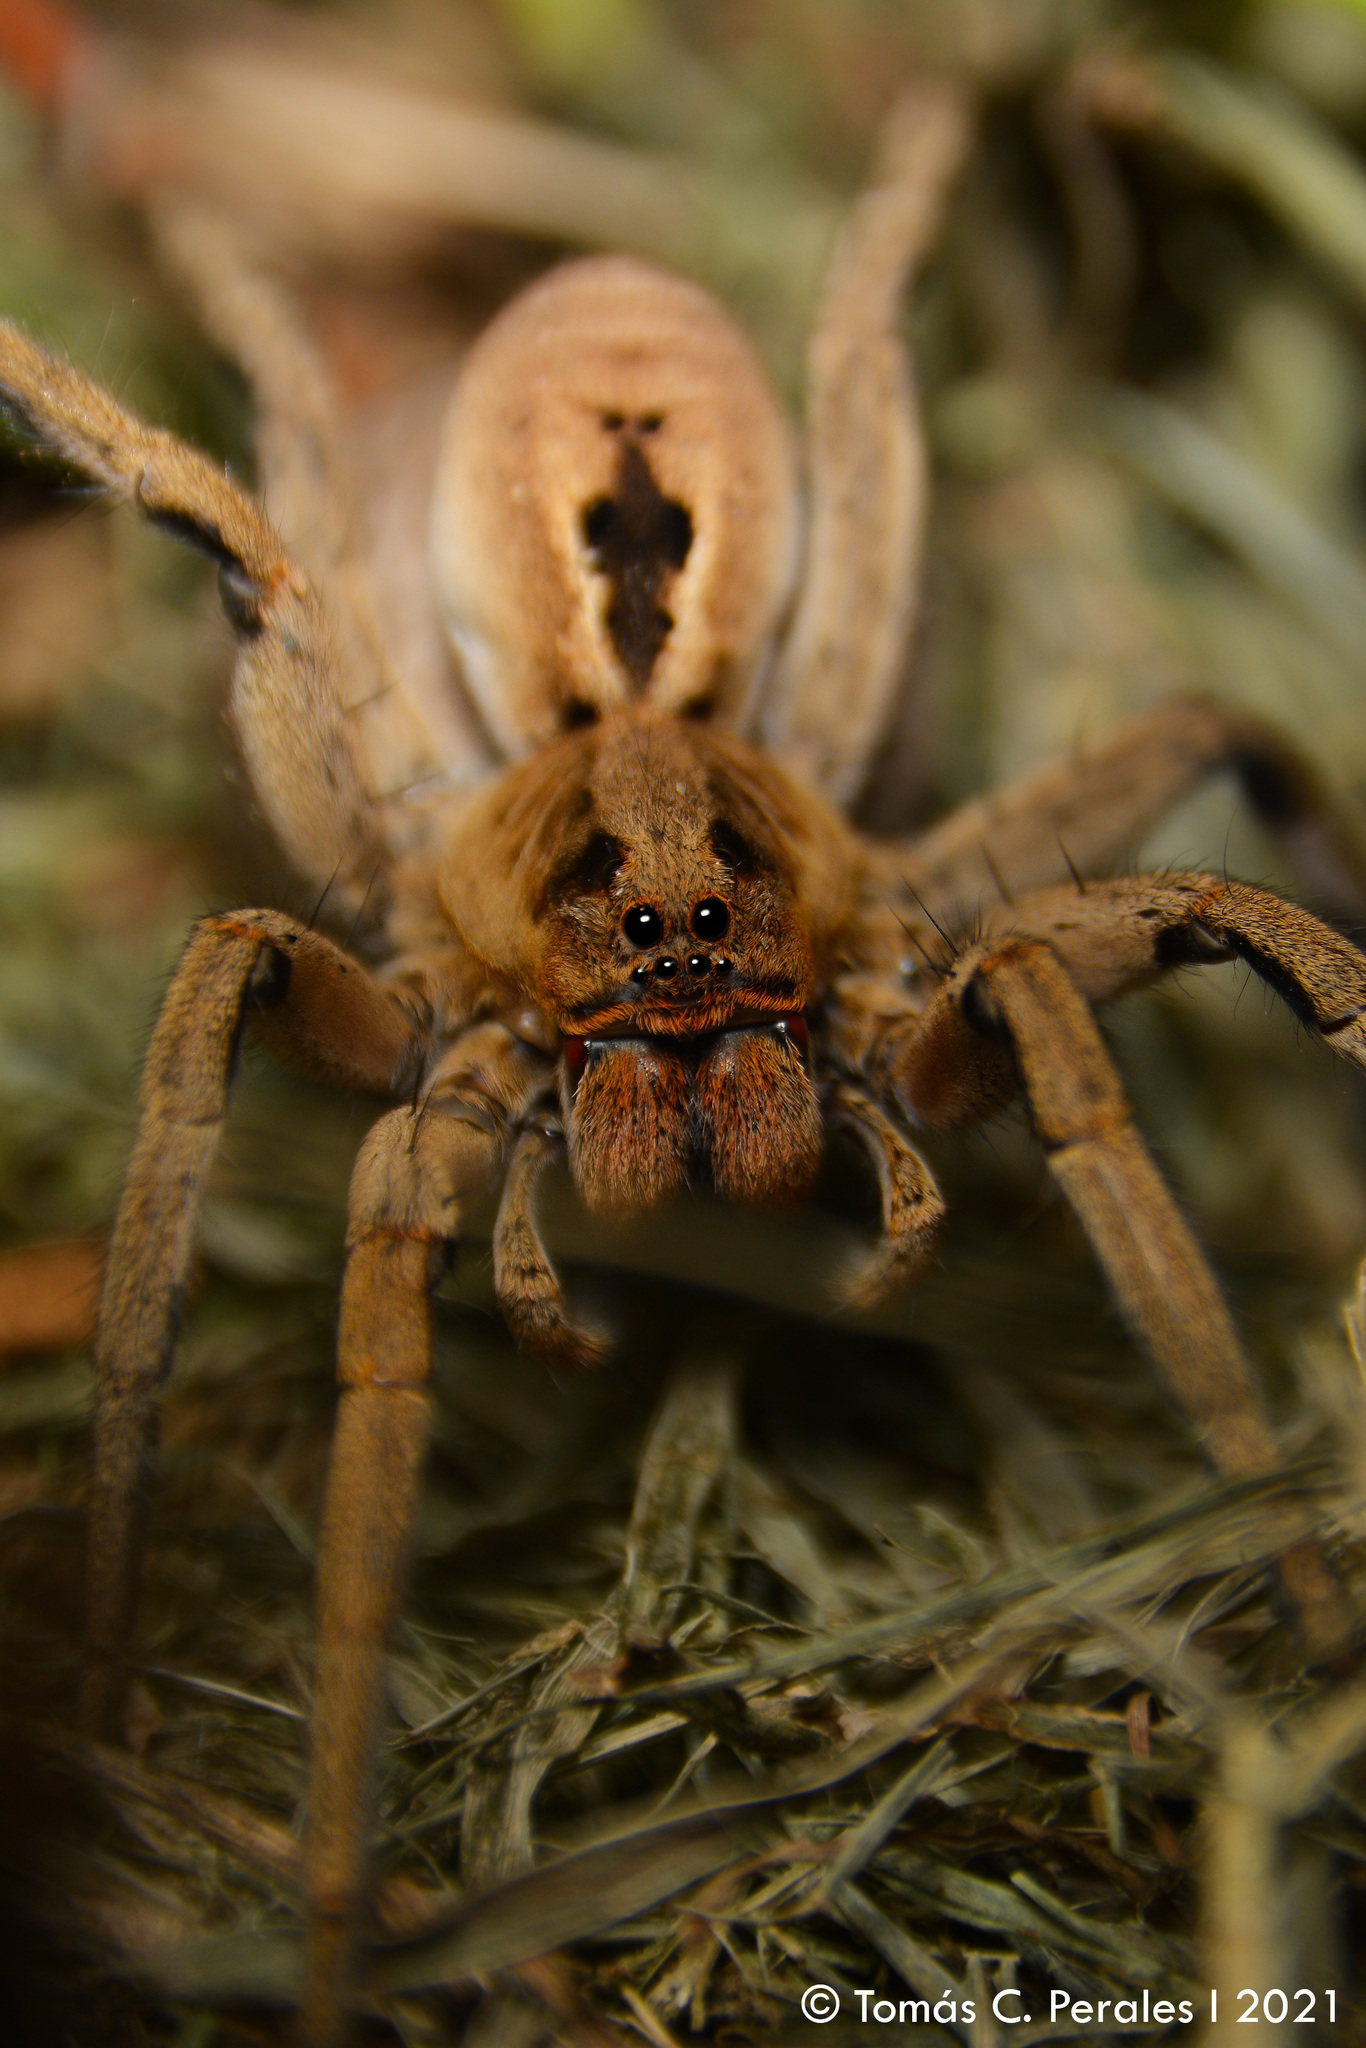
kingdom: Animalia
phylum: Arthropoda
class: Arachnida
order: Araneae
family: Lycosidae
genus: Lycosa
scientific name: Lycosa erythrognatha
